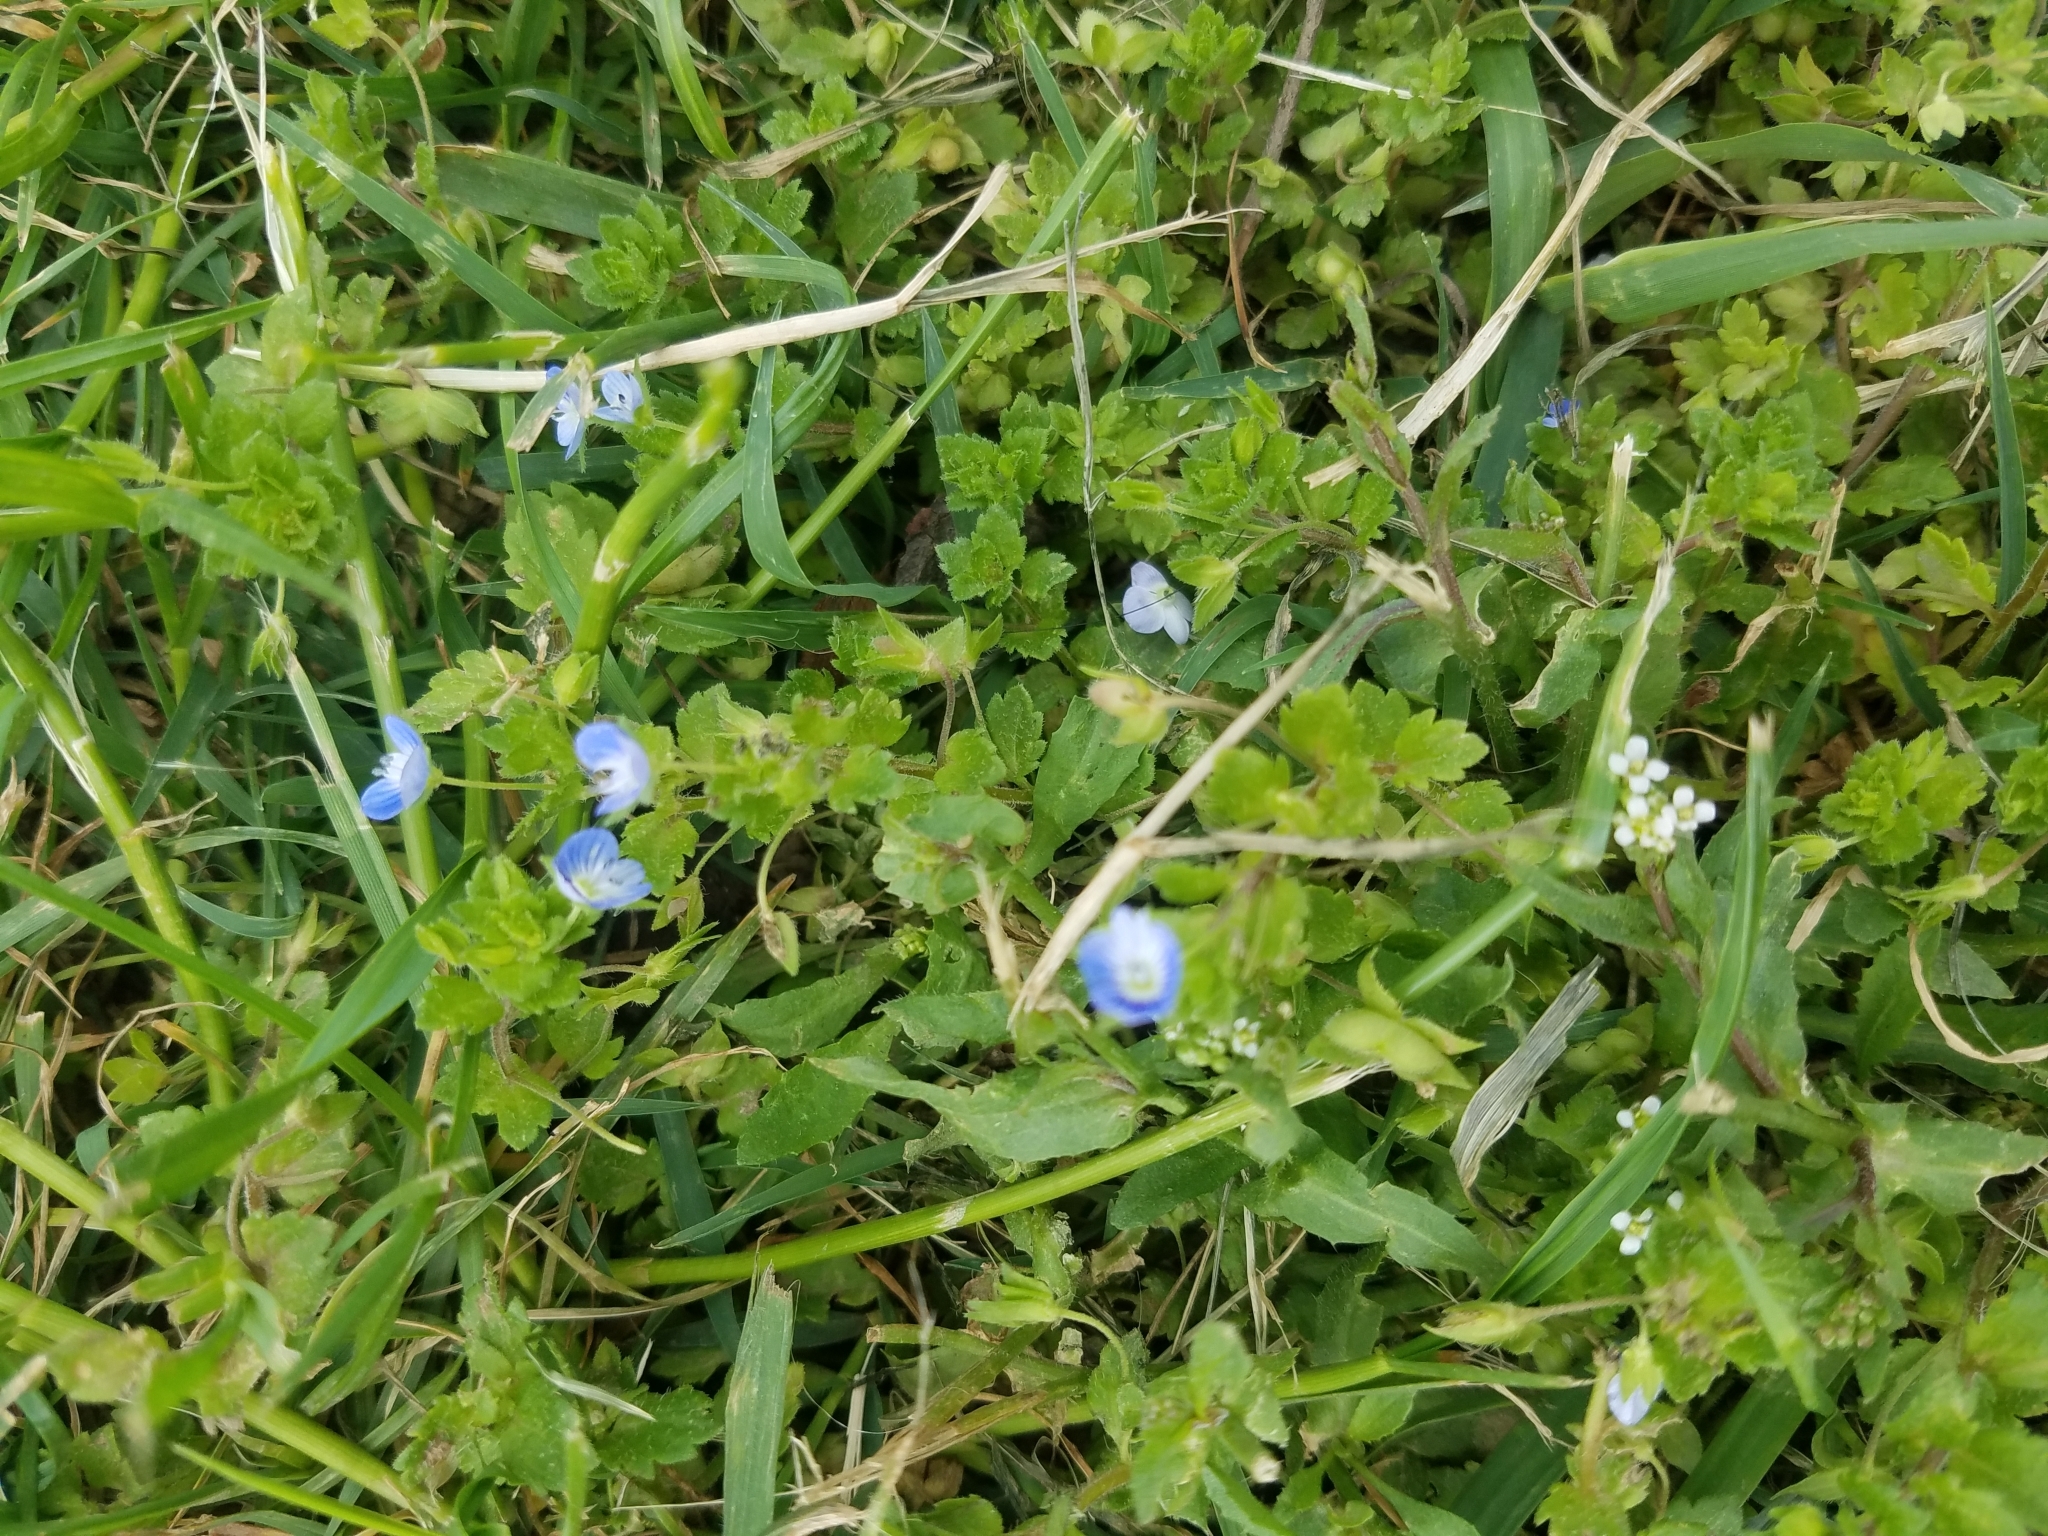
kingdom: Plantae
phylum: Tracheophyta
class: Magnoliopsida
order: Lamiales
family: Plantaginaceae
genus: Veronica
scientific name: Veronica persica
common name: Common field-speedwell
